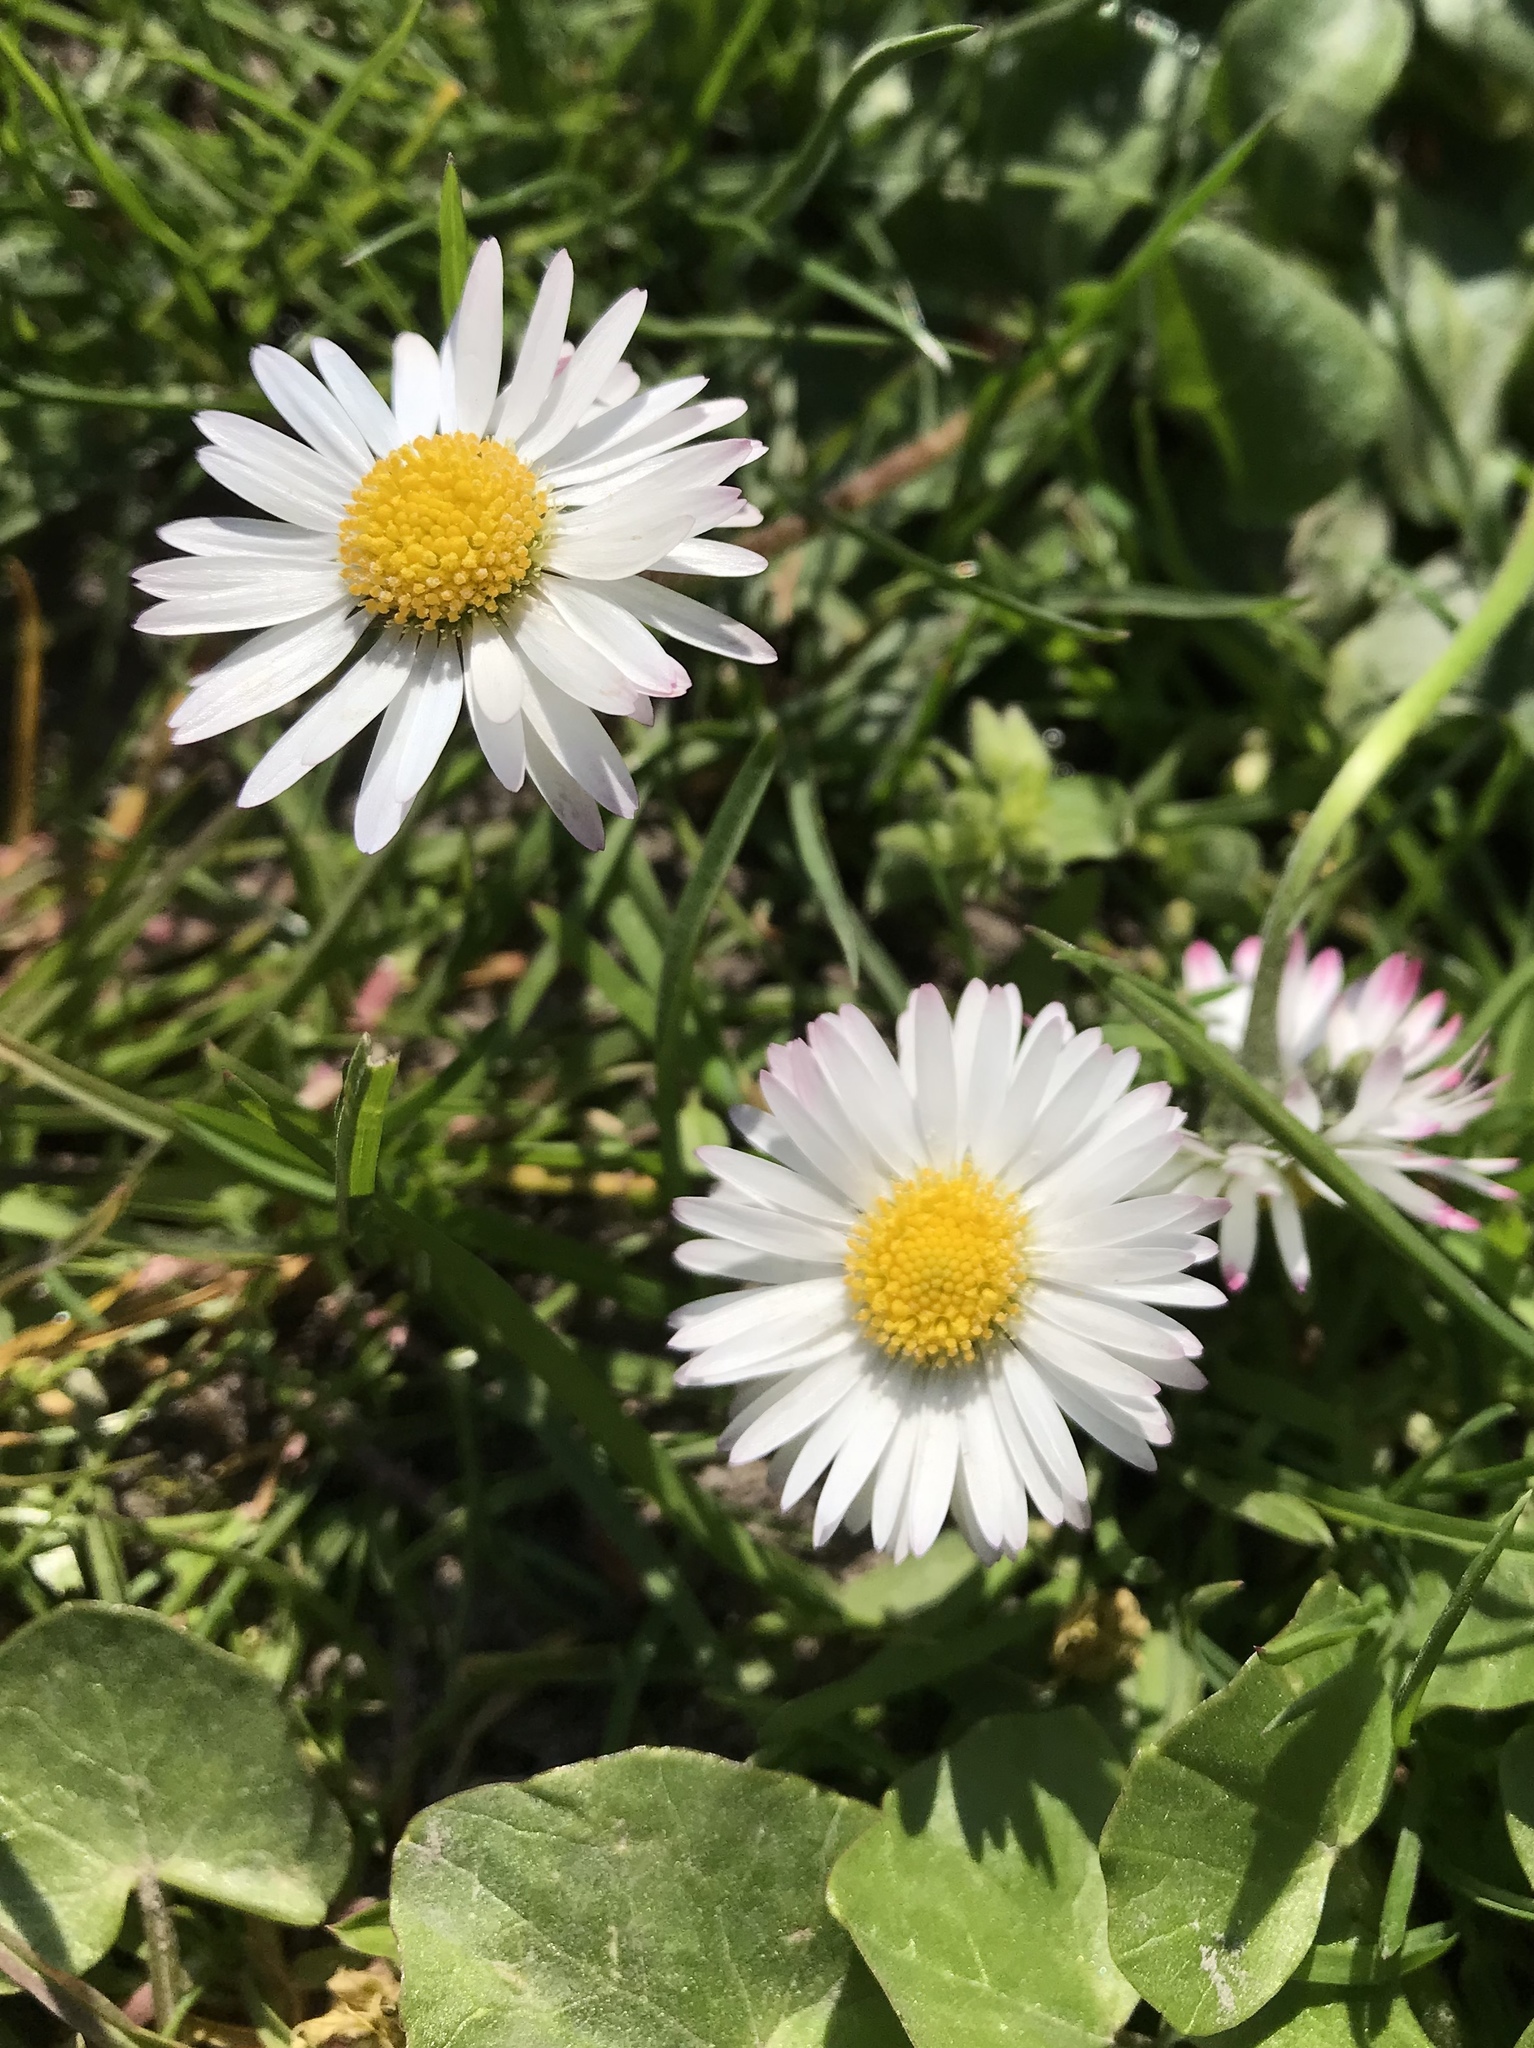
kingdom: Plantae
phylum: Tracheophyta
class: Magnoliopsida
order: Asterales
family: Asteraceae
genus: Bellis
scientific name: Bellis perennis
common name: Lawndaisy
